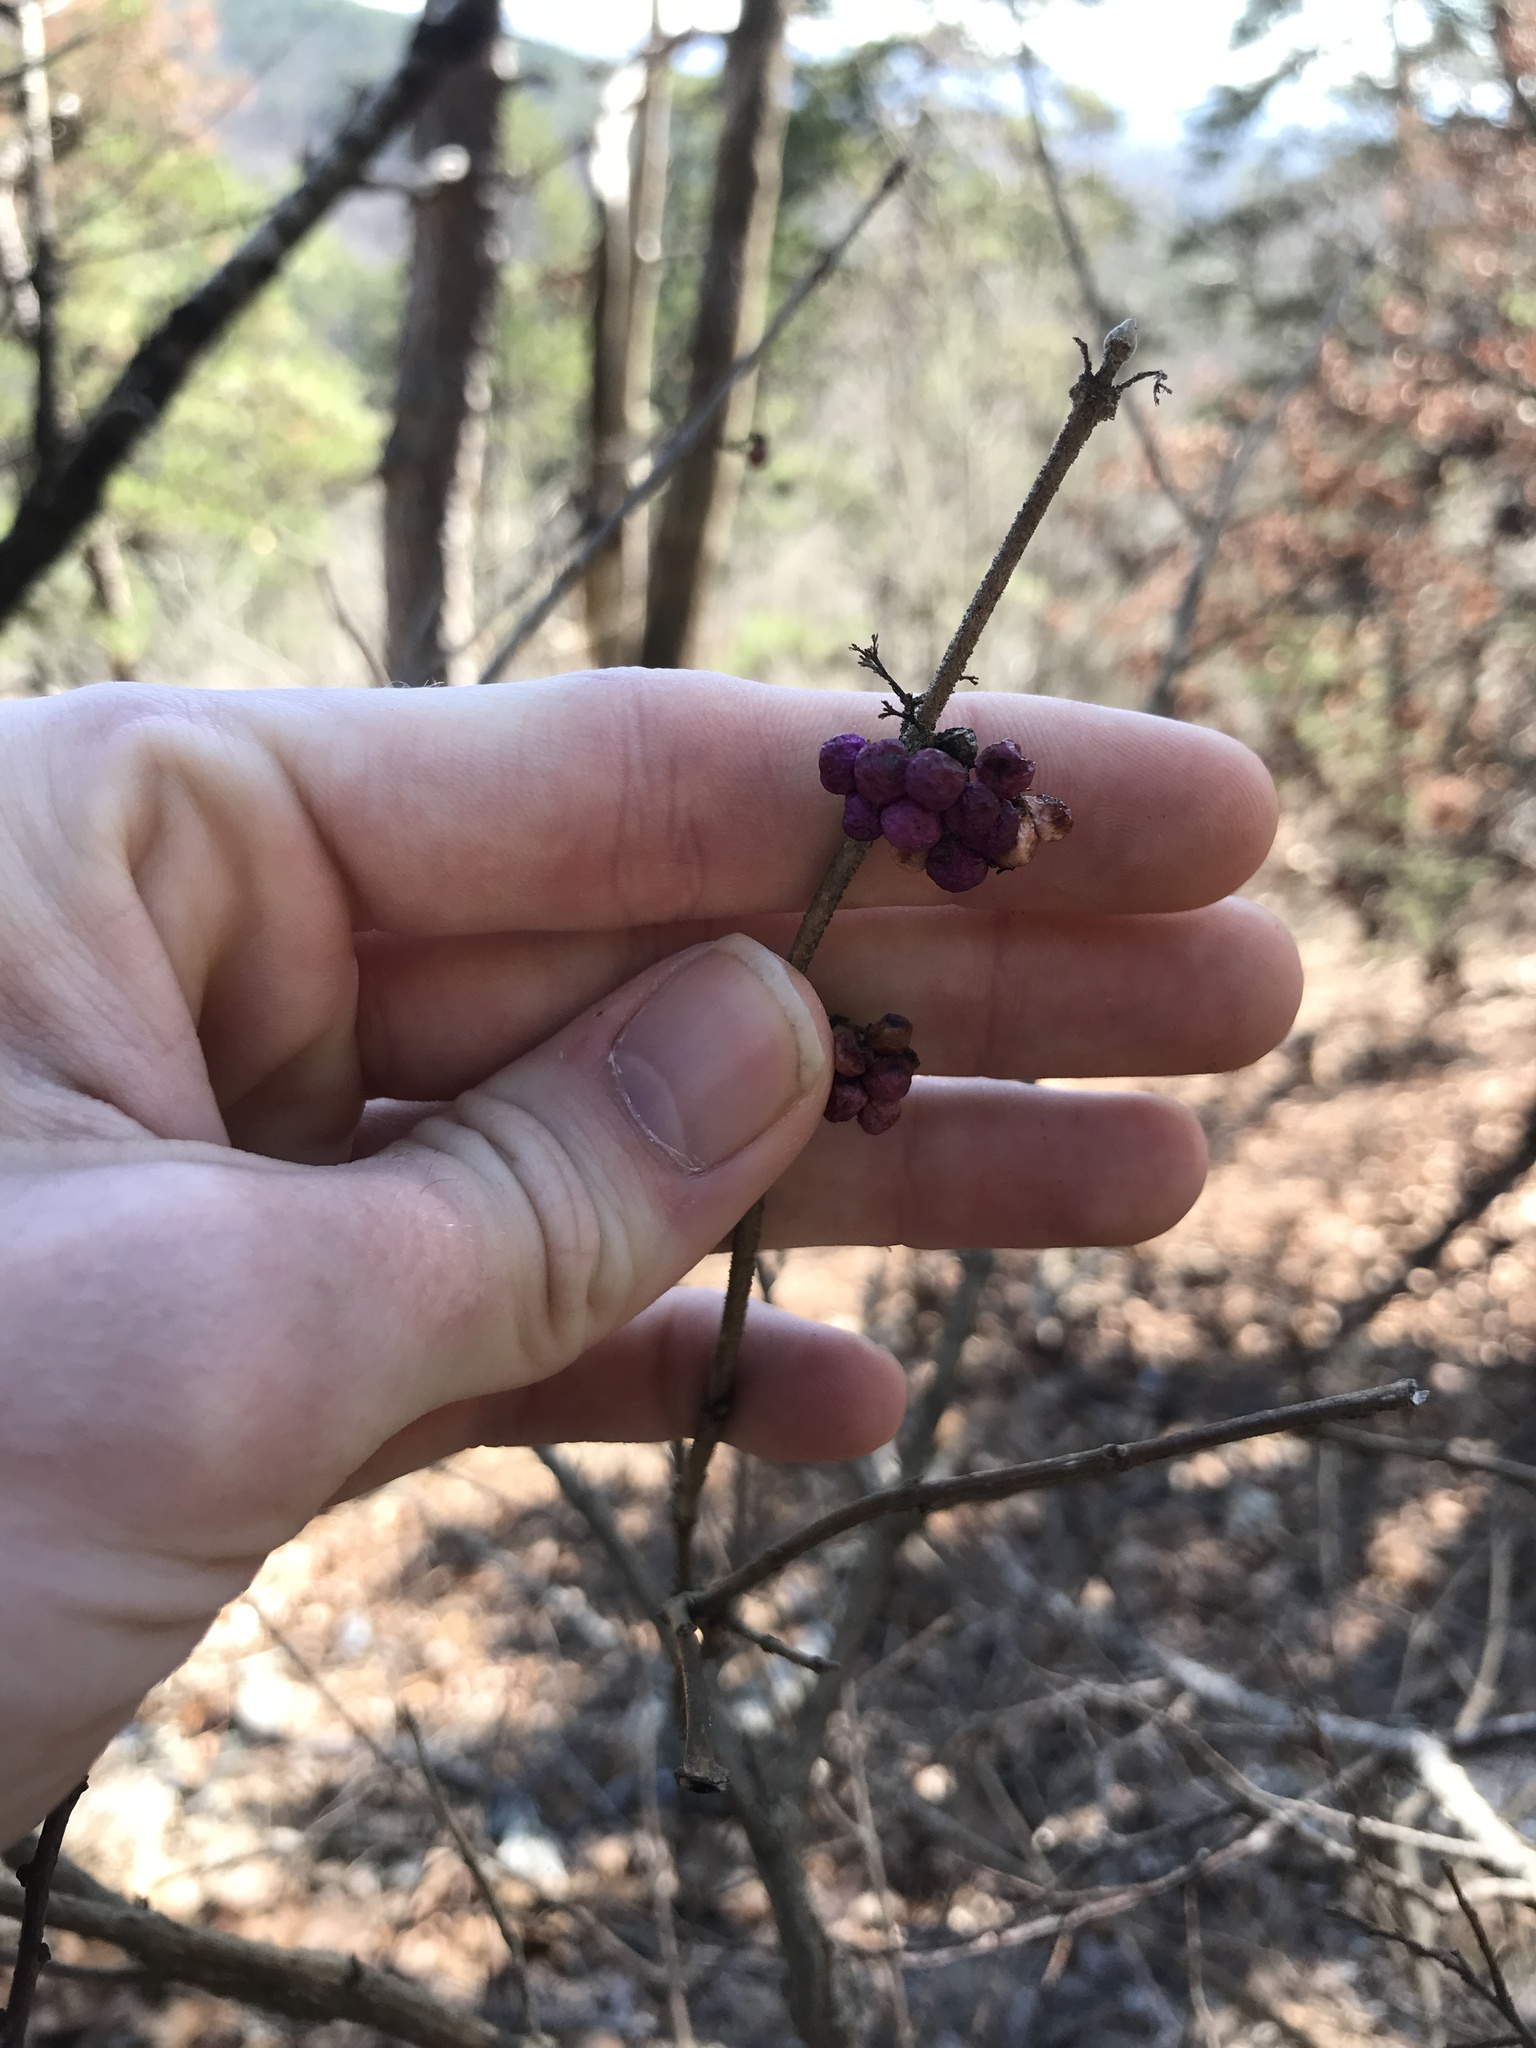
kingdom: Plantae
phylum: Tracheophyta
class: Magnoliopsida
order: Lamiales
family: Lamiaceae
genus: Callicarpa
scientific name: Callicarpa americana
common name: American beautyberry
